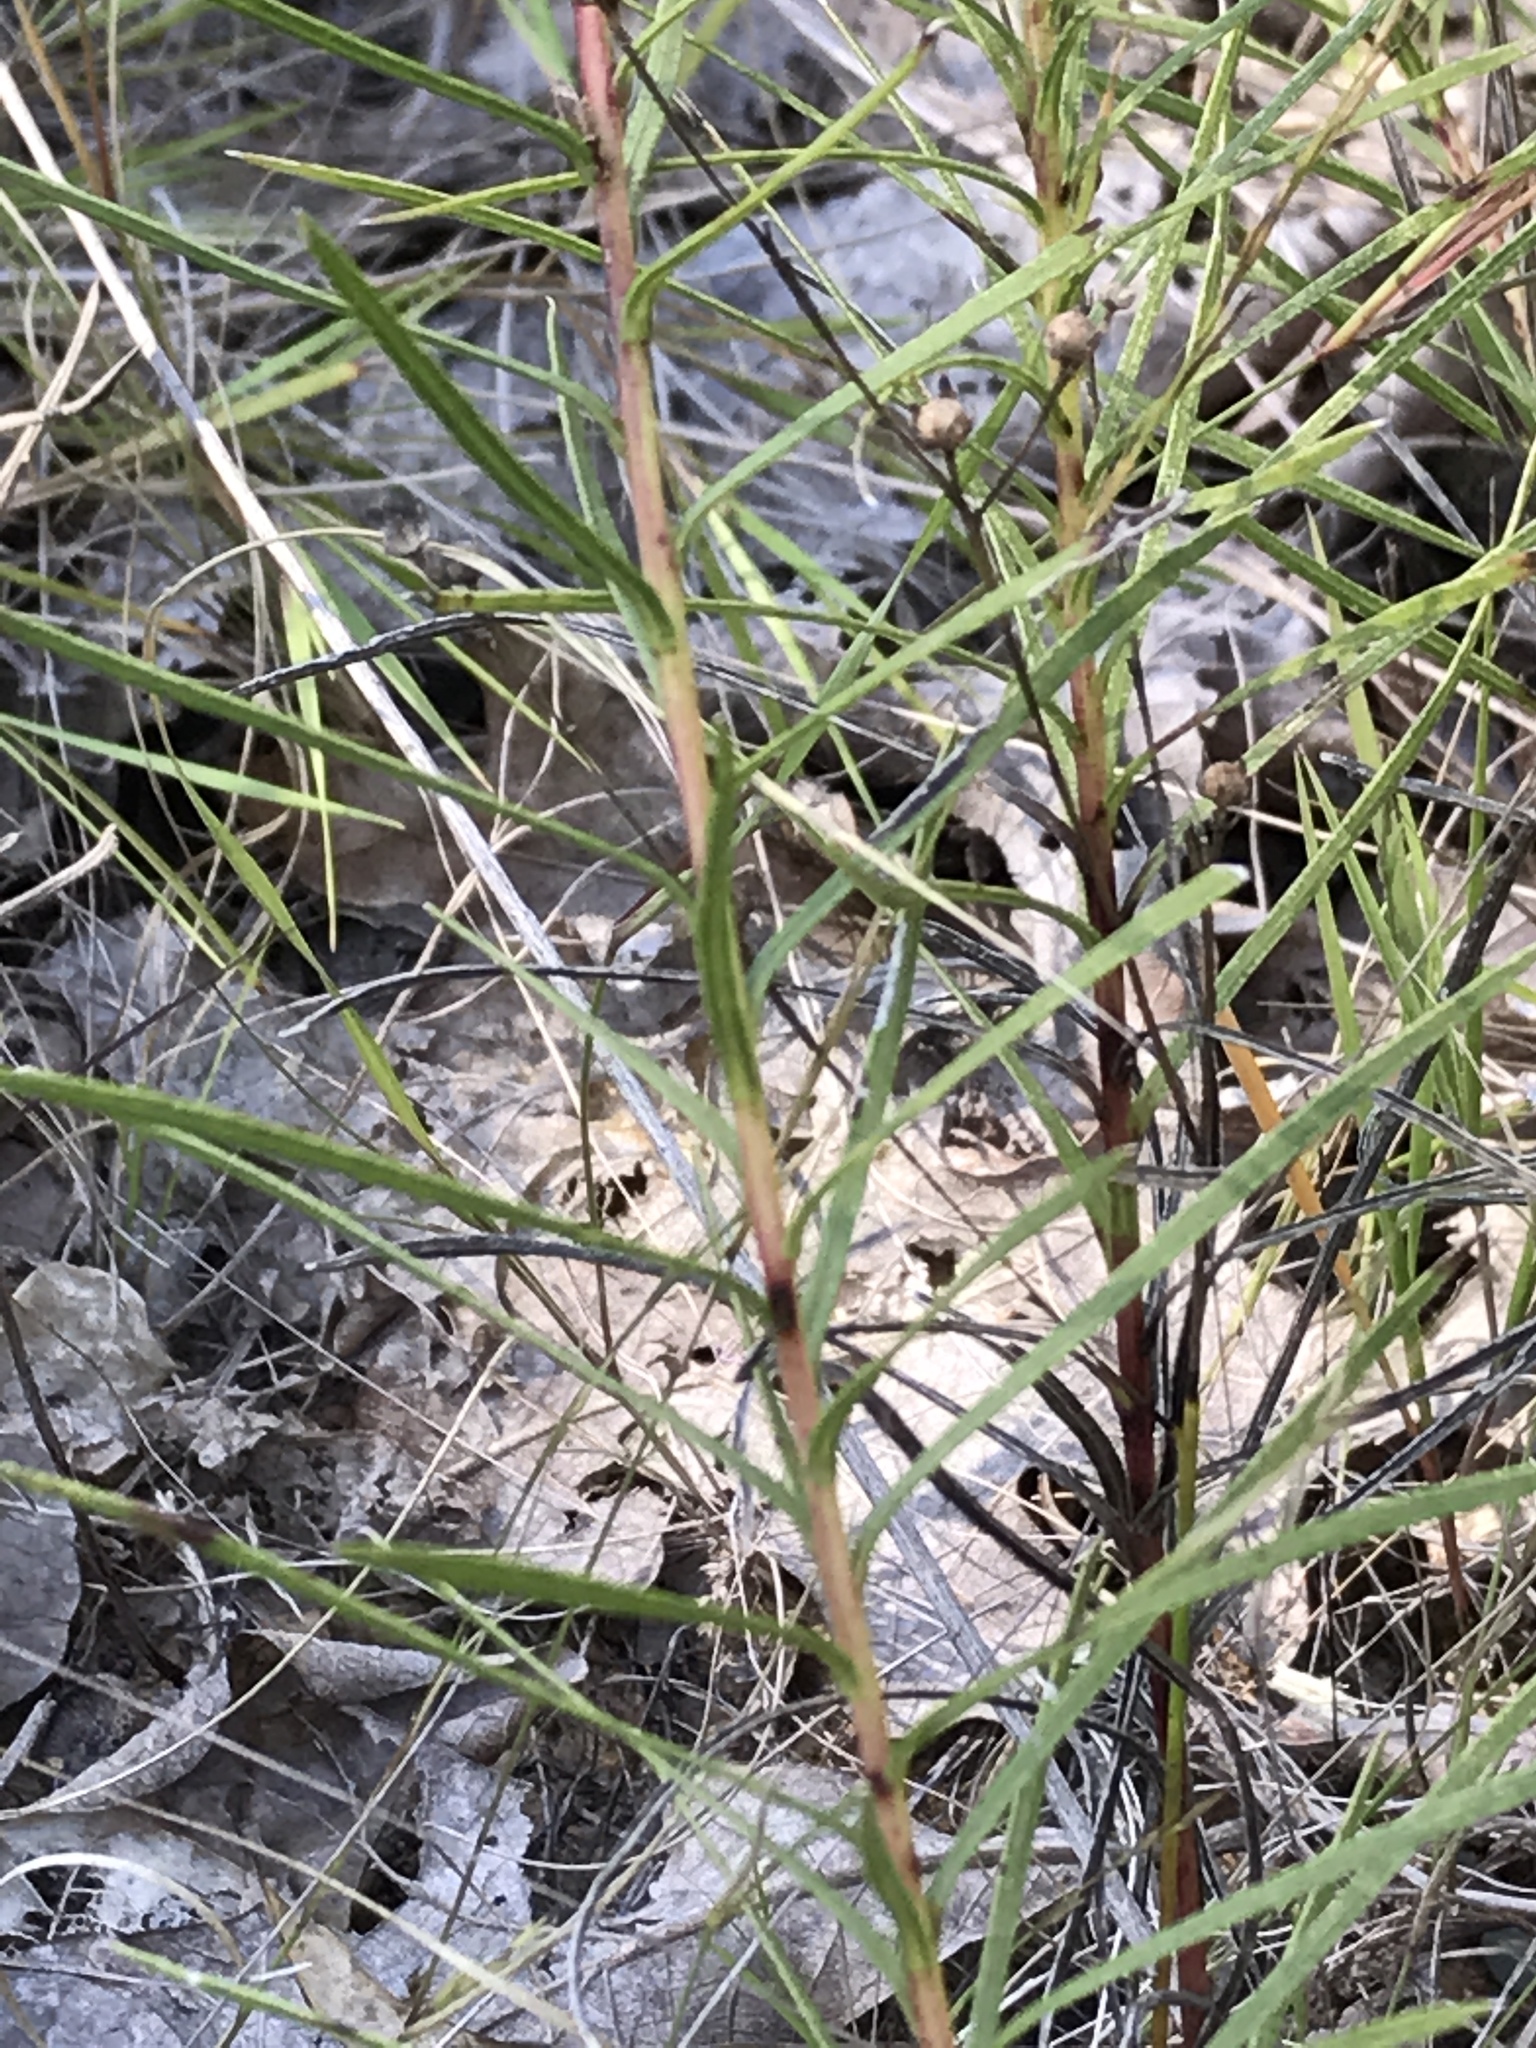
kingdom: Plantae
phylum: Tracheophyta
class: Magnoliopsida
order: Asterales
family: Asteraceae
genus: Liatris
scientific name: Liatris punctata
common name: Dotted gayfeather
